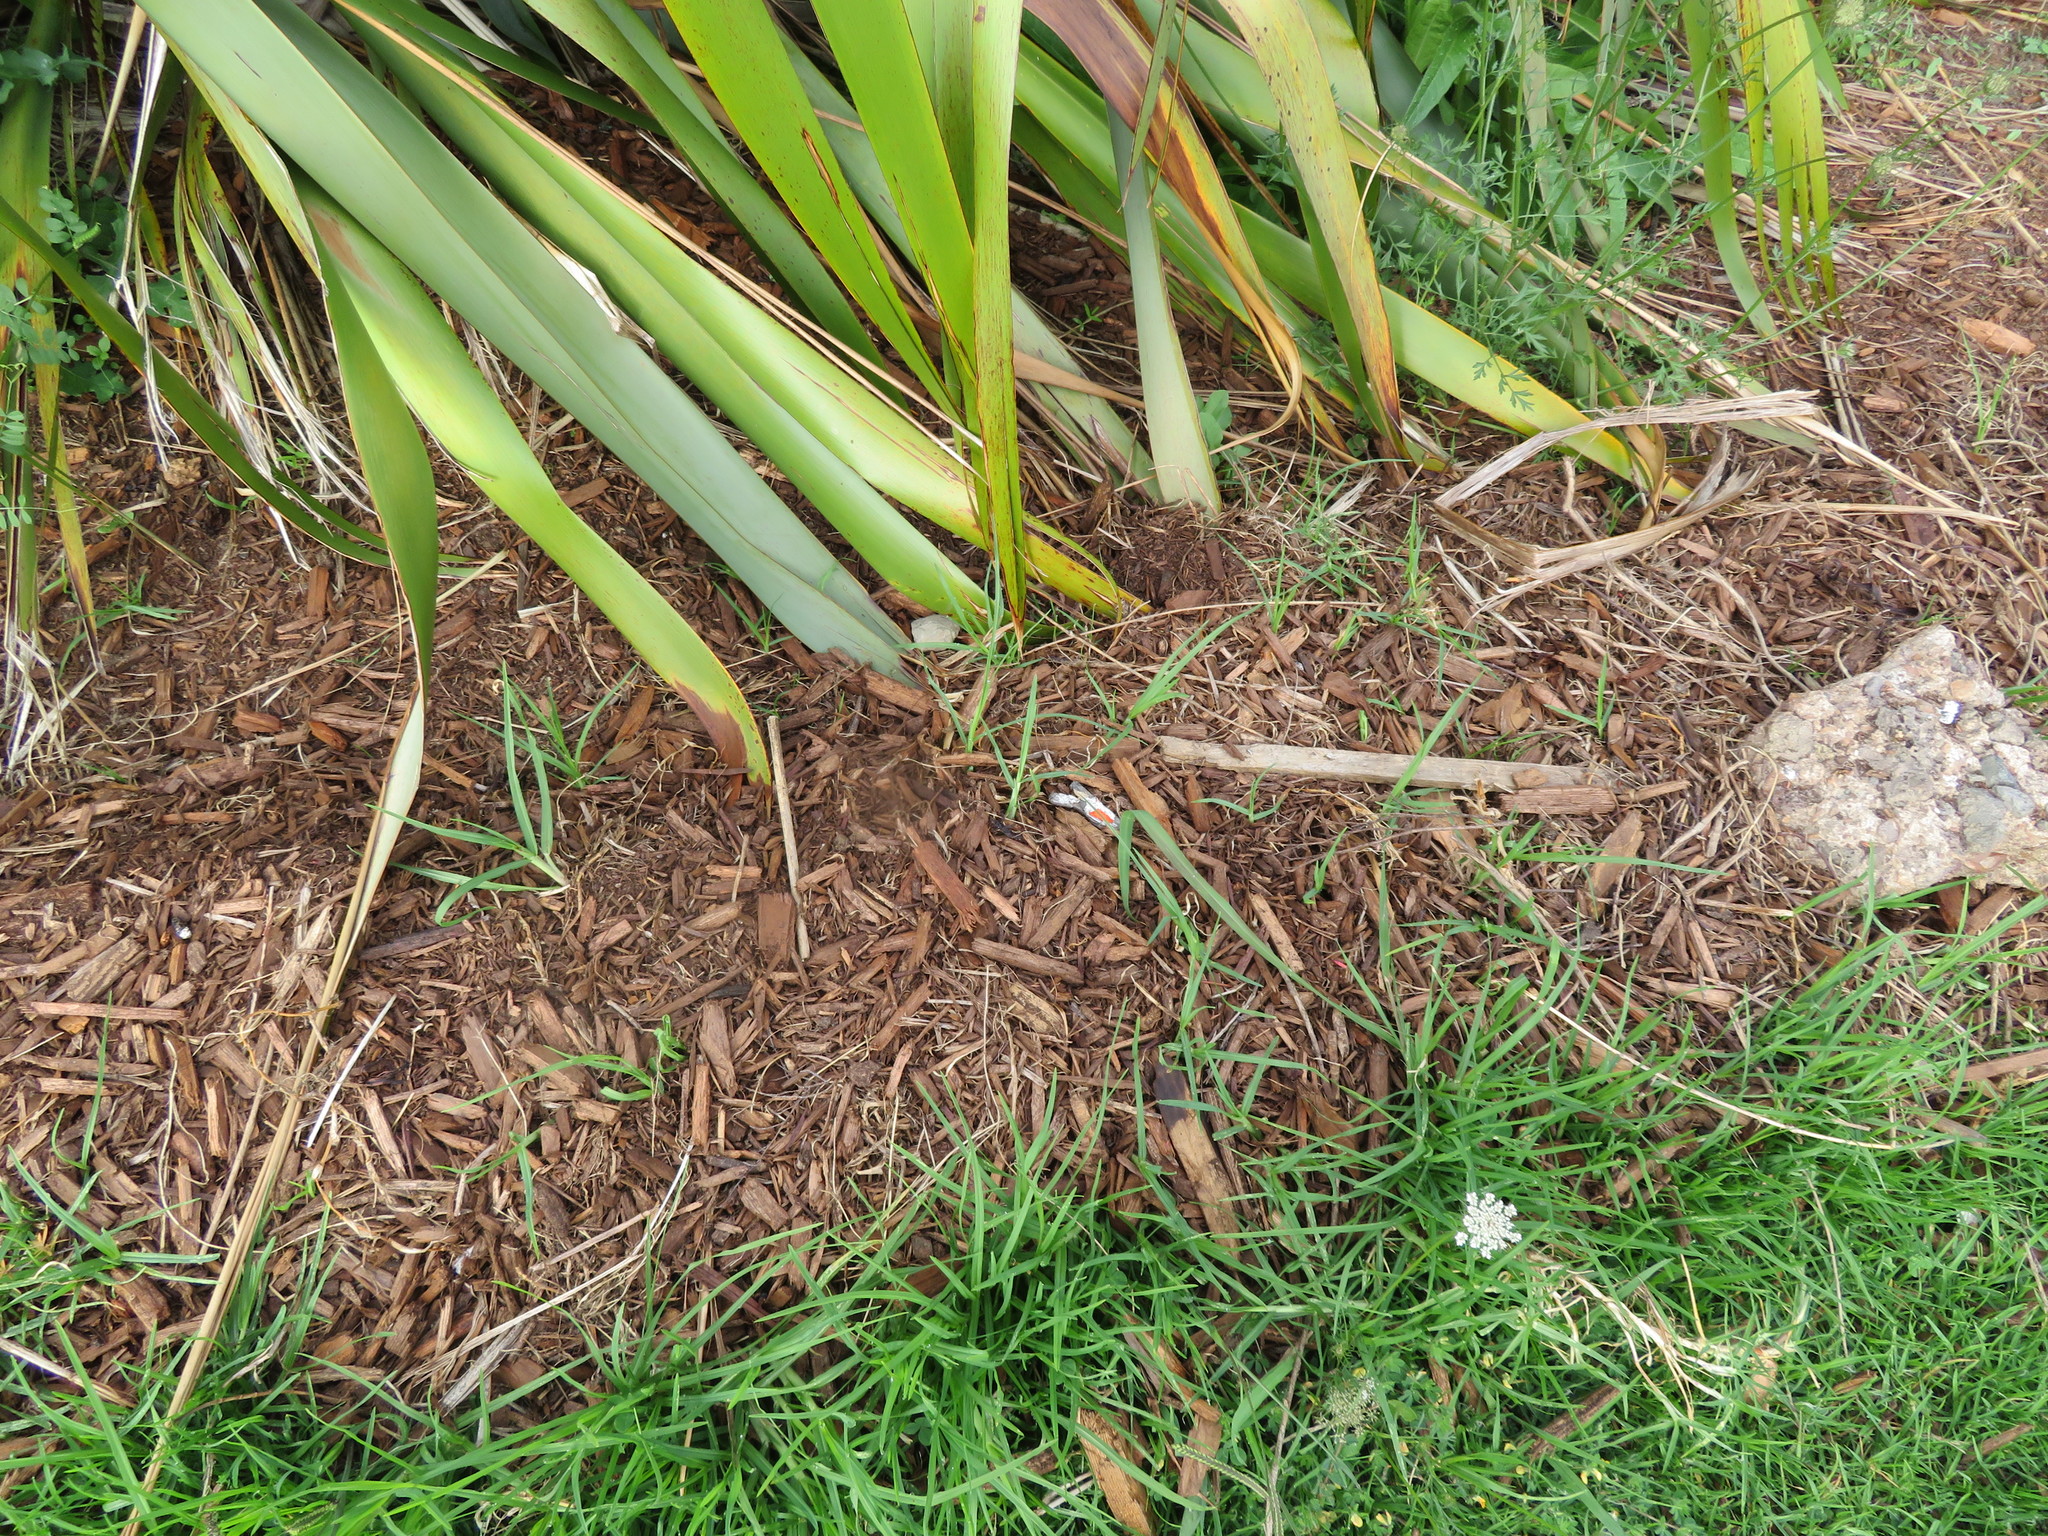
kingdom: Plantae
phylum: Tracheophyta
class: Magnoliopsida
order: Apiales
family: Apiaceae
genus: Daucus
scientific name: Daucus carota
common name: Wild carrot
